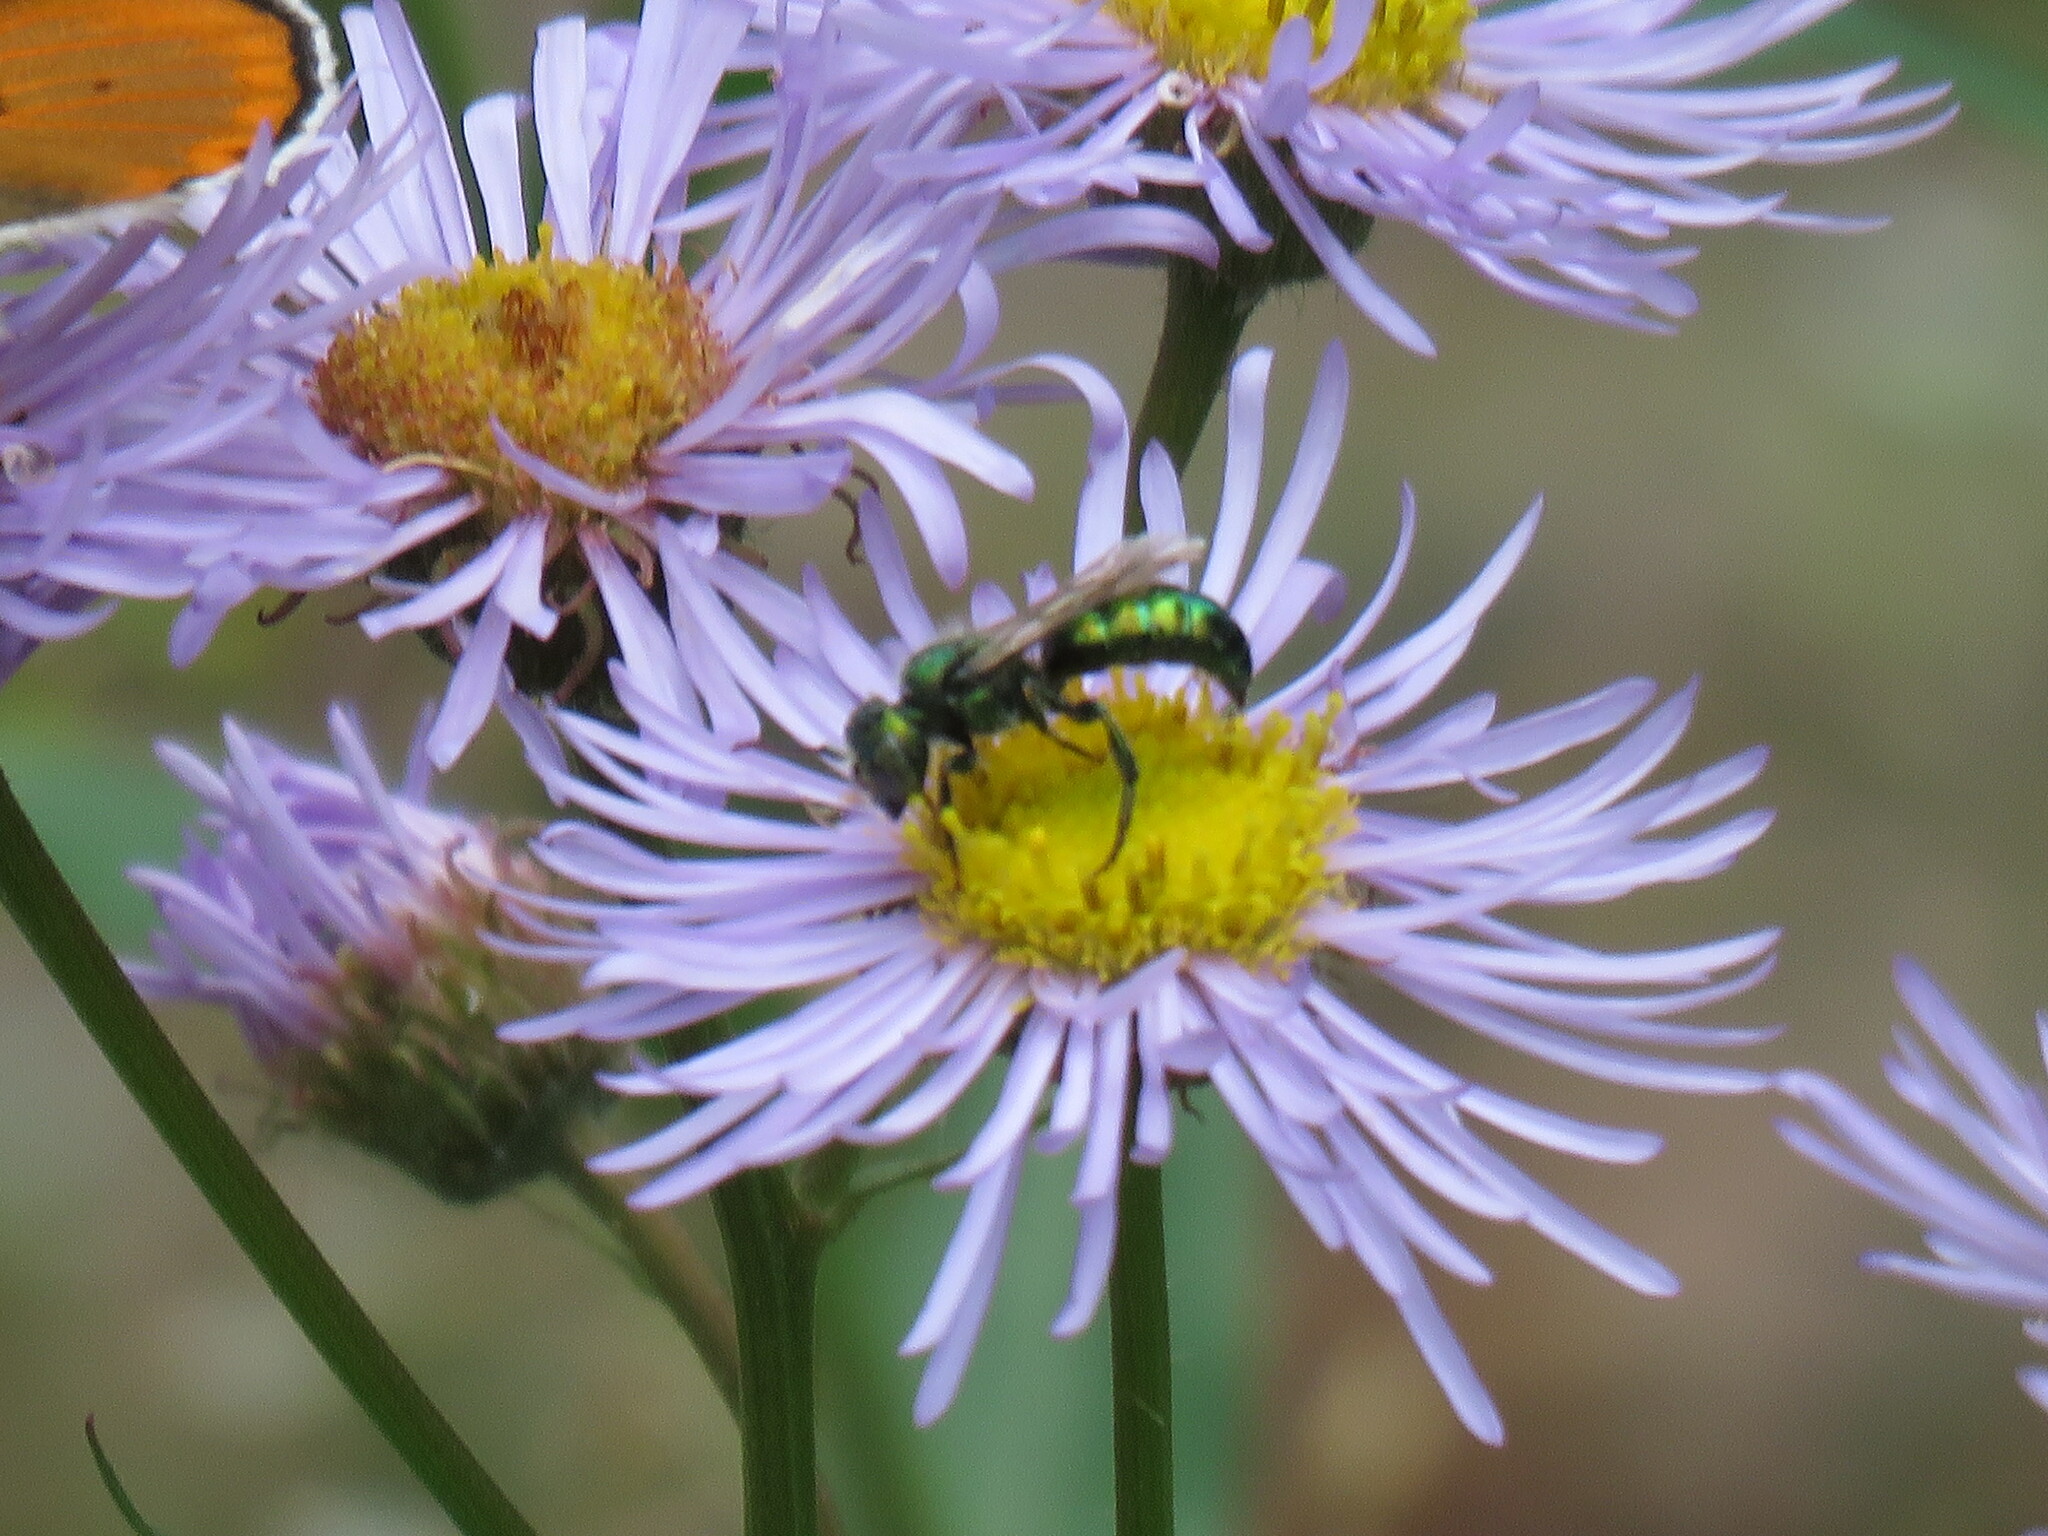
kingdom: Animalia
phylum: Arthropoda
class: Insecta
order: Hymenoptera
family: Megachilidae
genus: Hoplitis
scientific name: Hoplitis fulgida
